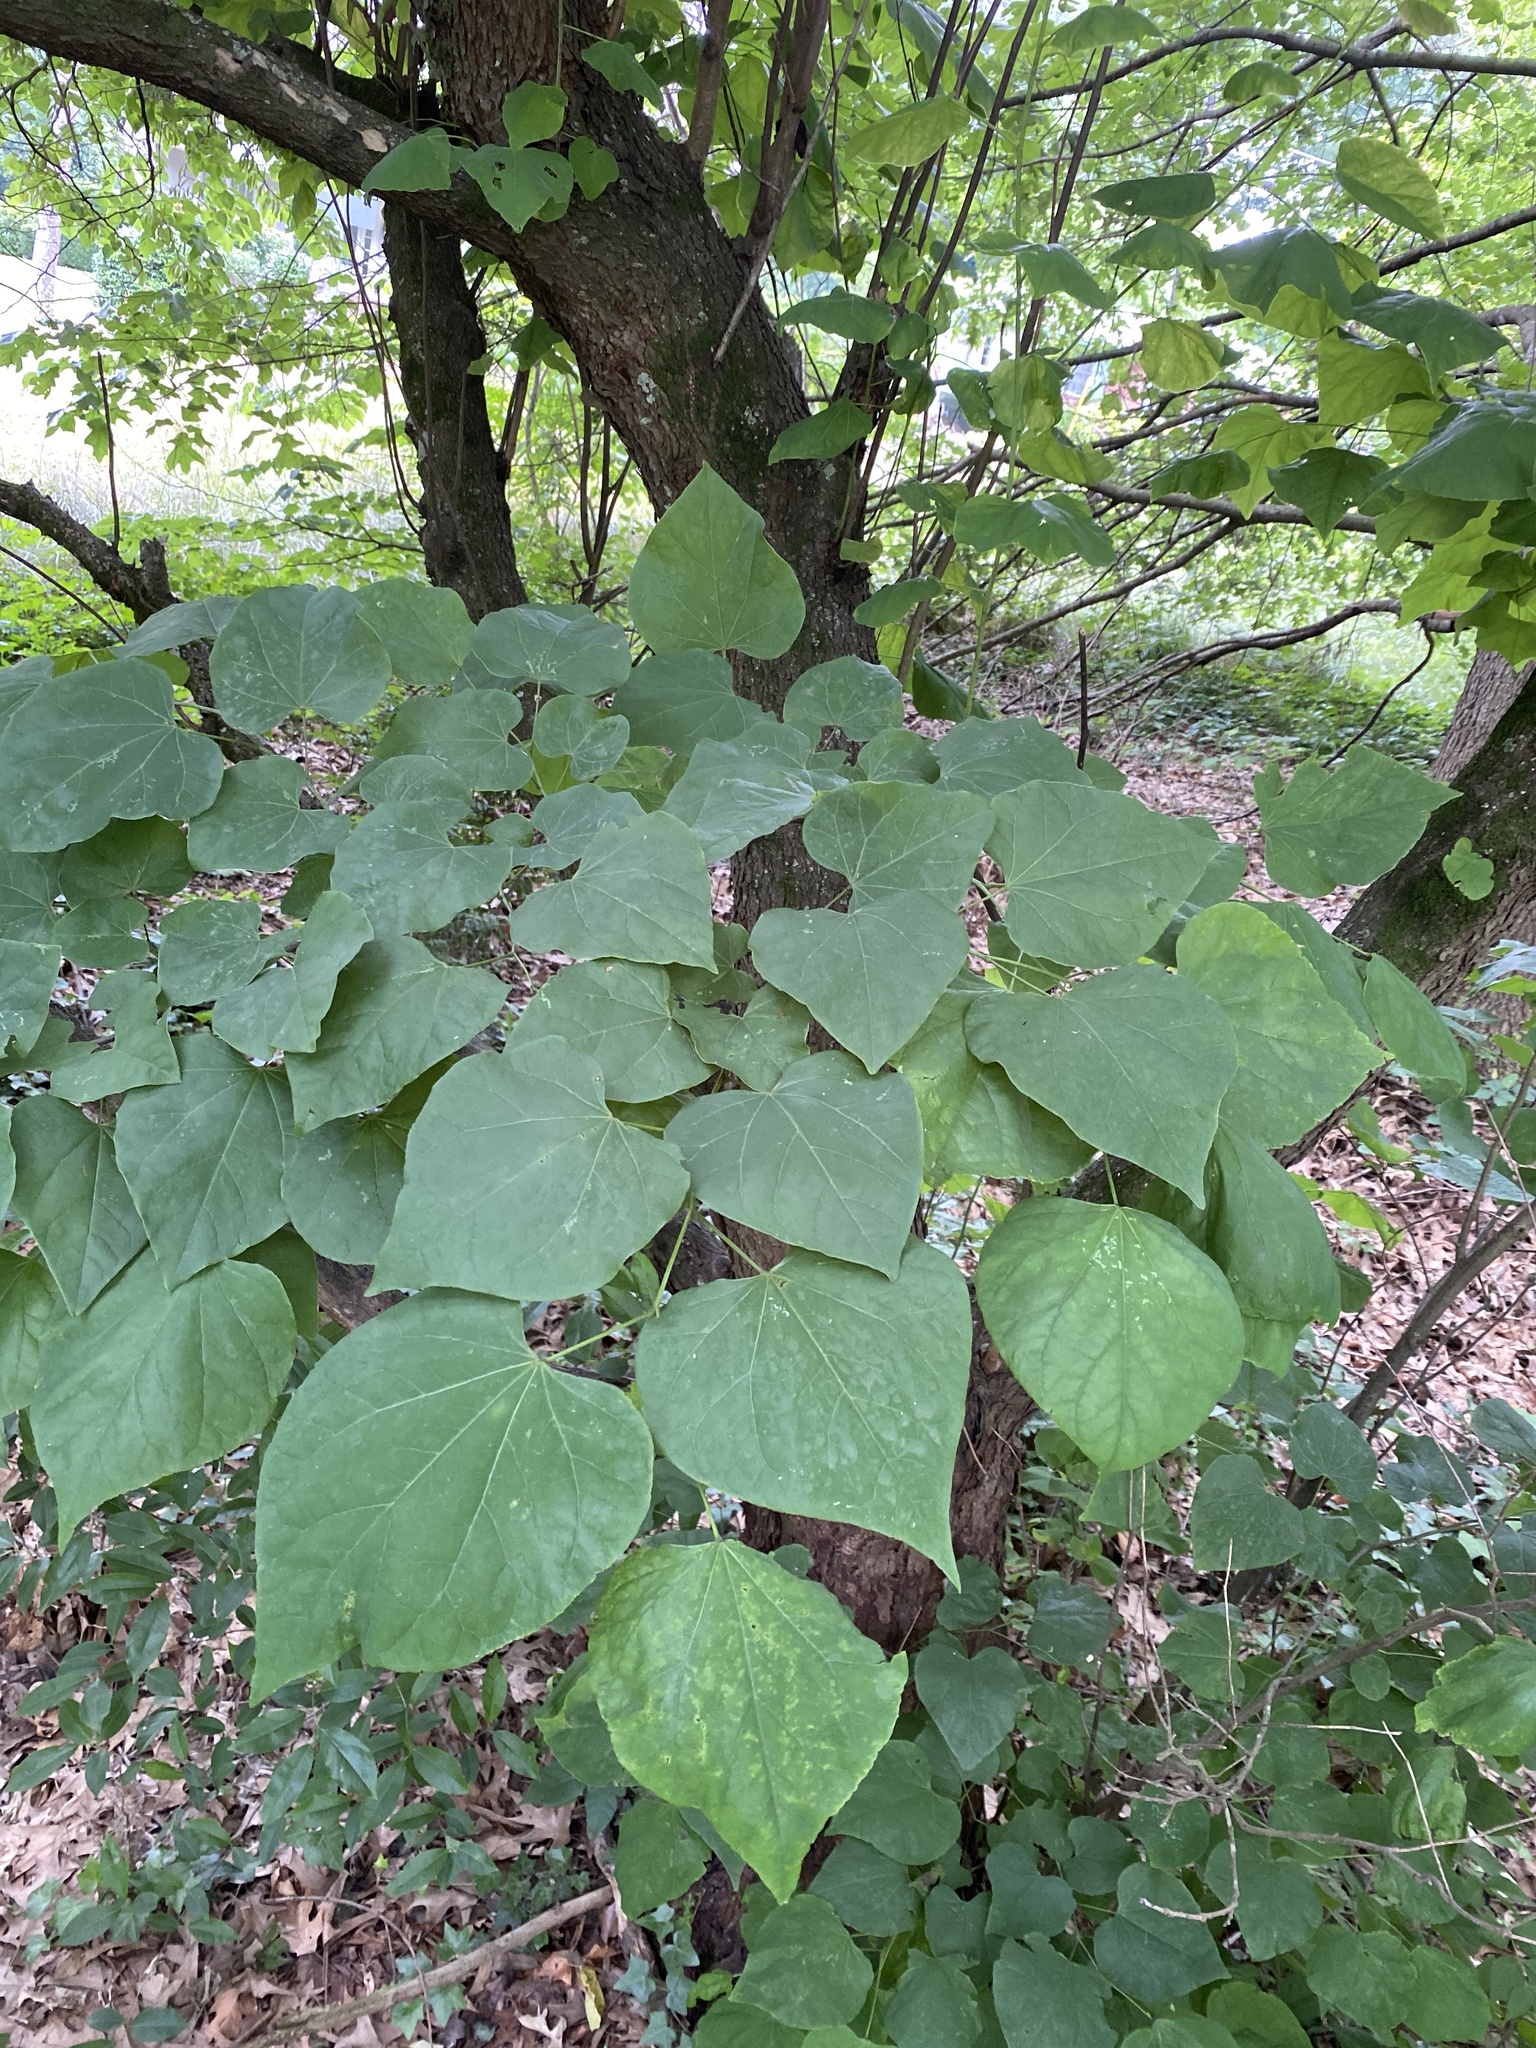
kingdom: Plantae
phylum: Tracheophyta
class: Magnoliopsida
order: Fabales
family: Fabaceae
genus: Cercis
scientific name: Cercis canadensis
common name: Eastern redbud
